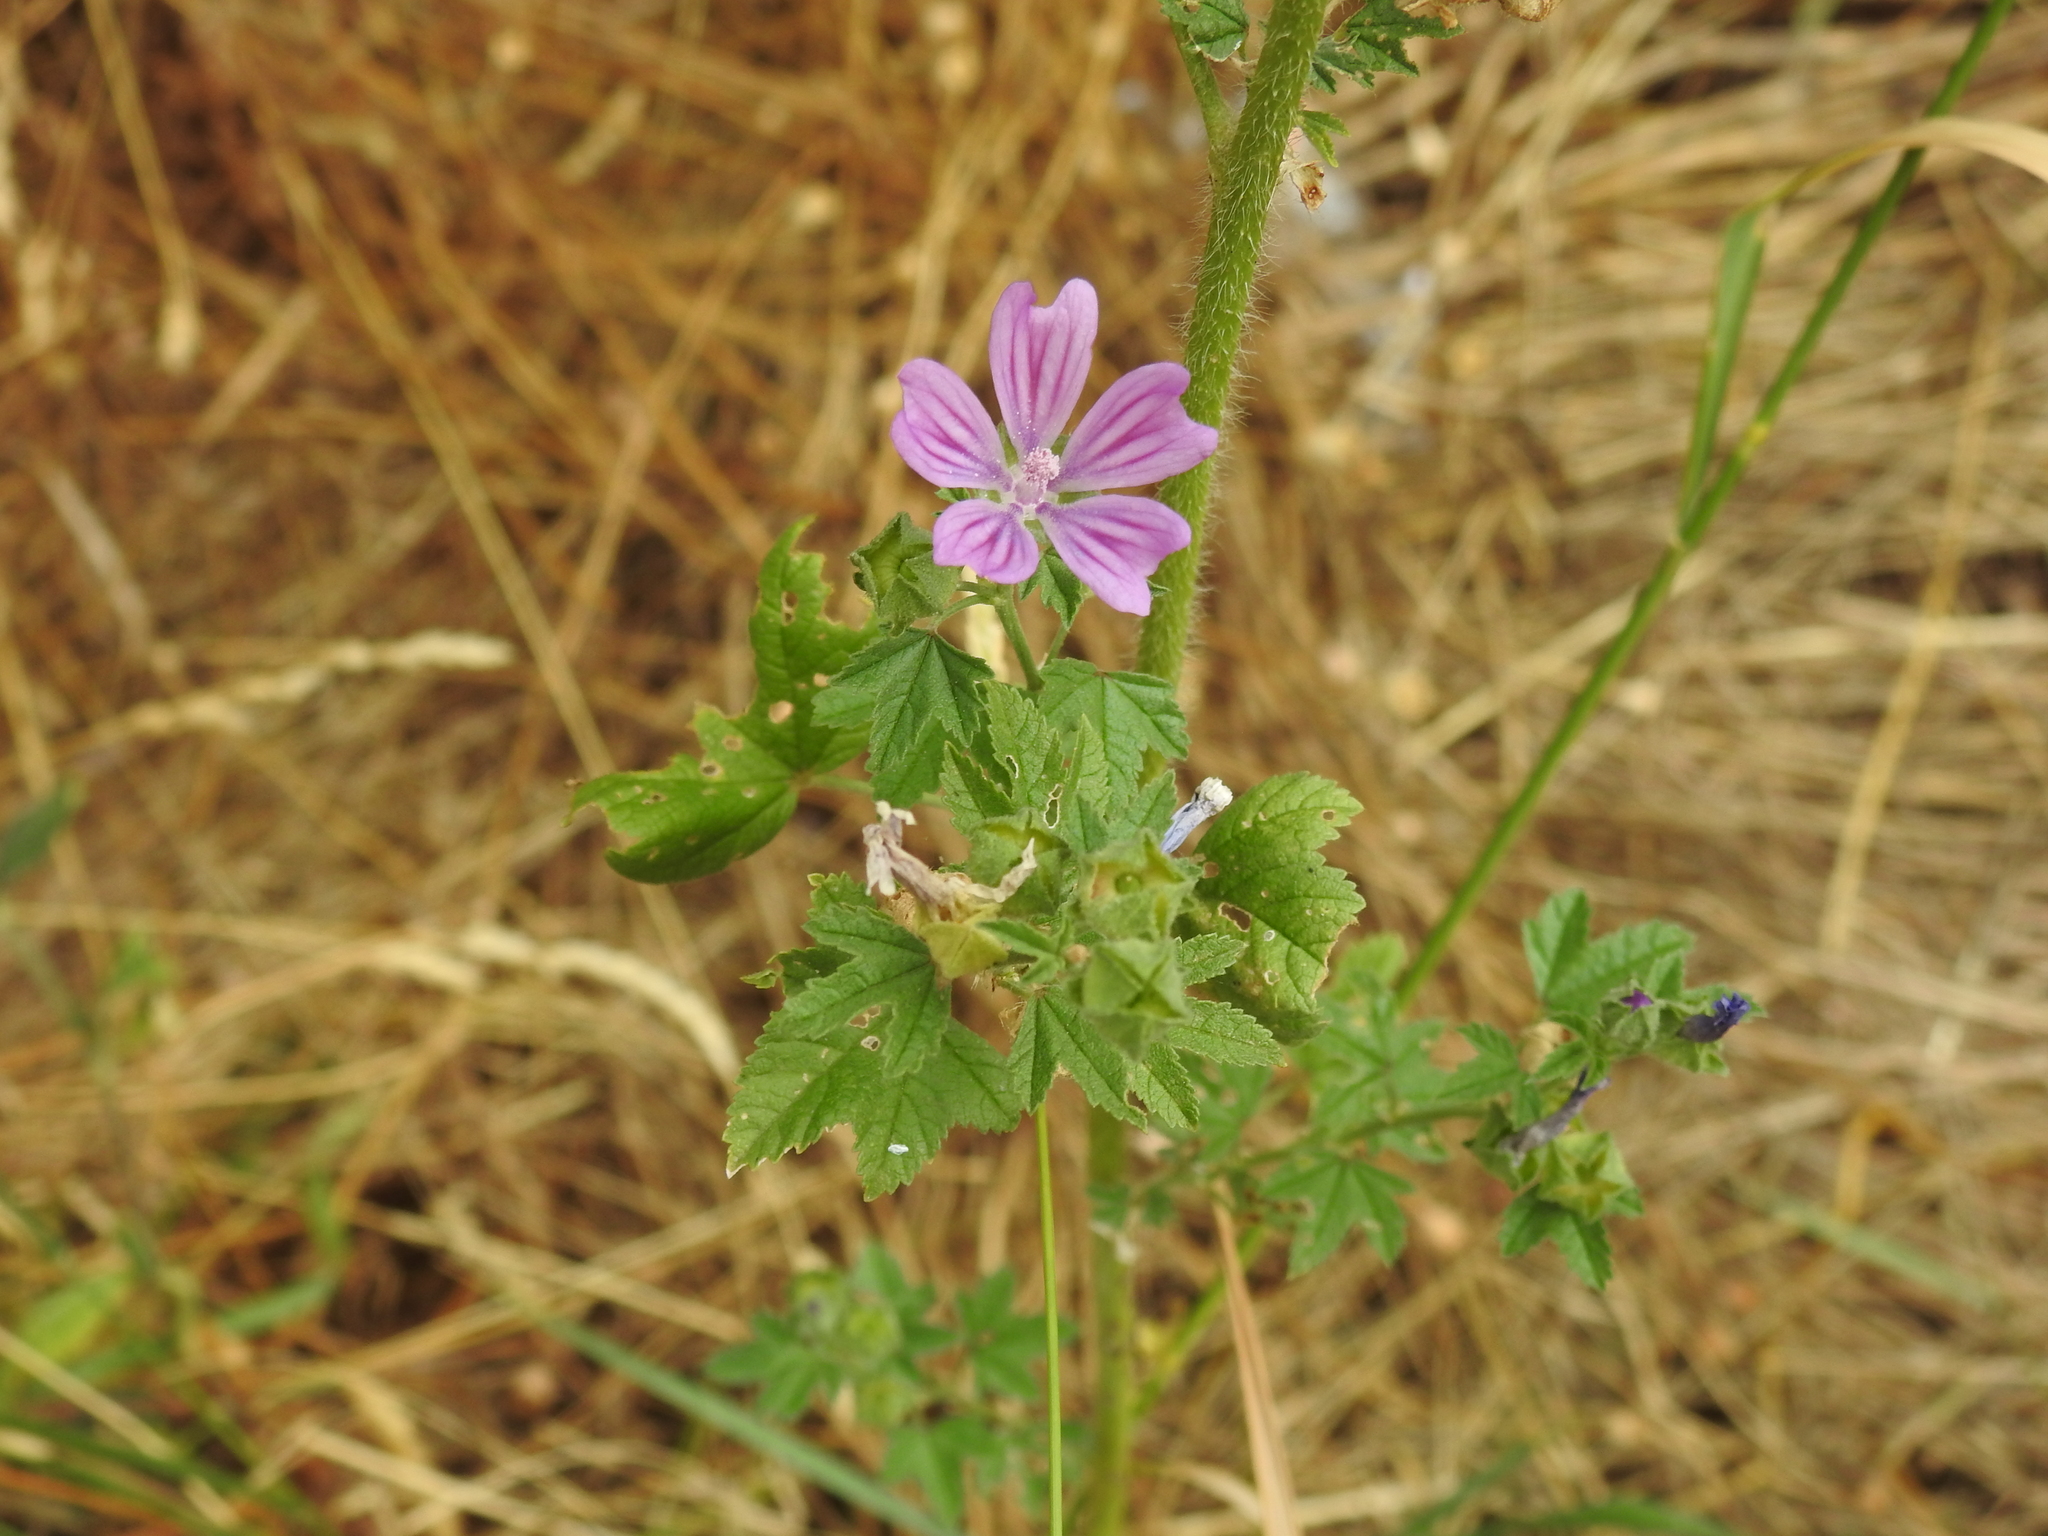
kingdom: Plantae
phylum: Tracheophyta
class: Magnoliopsida
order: Malvales
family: Malvaceae
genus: Malva
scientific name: Malva sylvestris
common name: Common mallow
